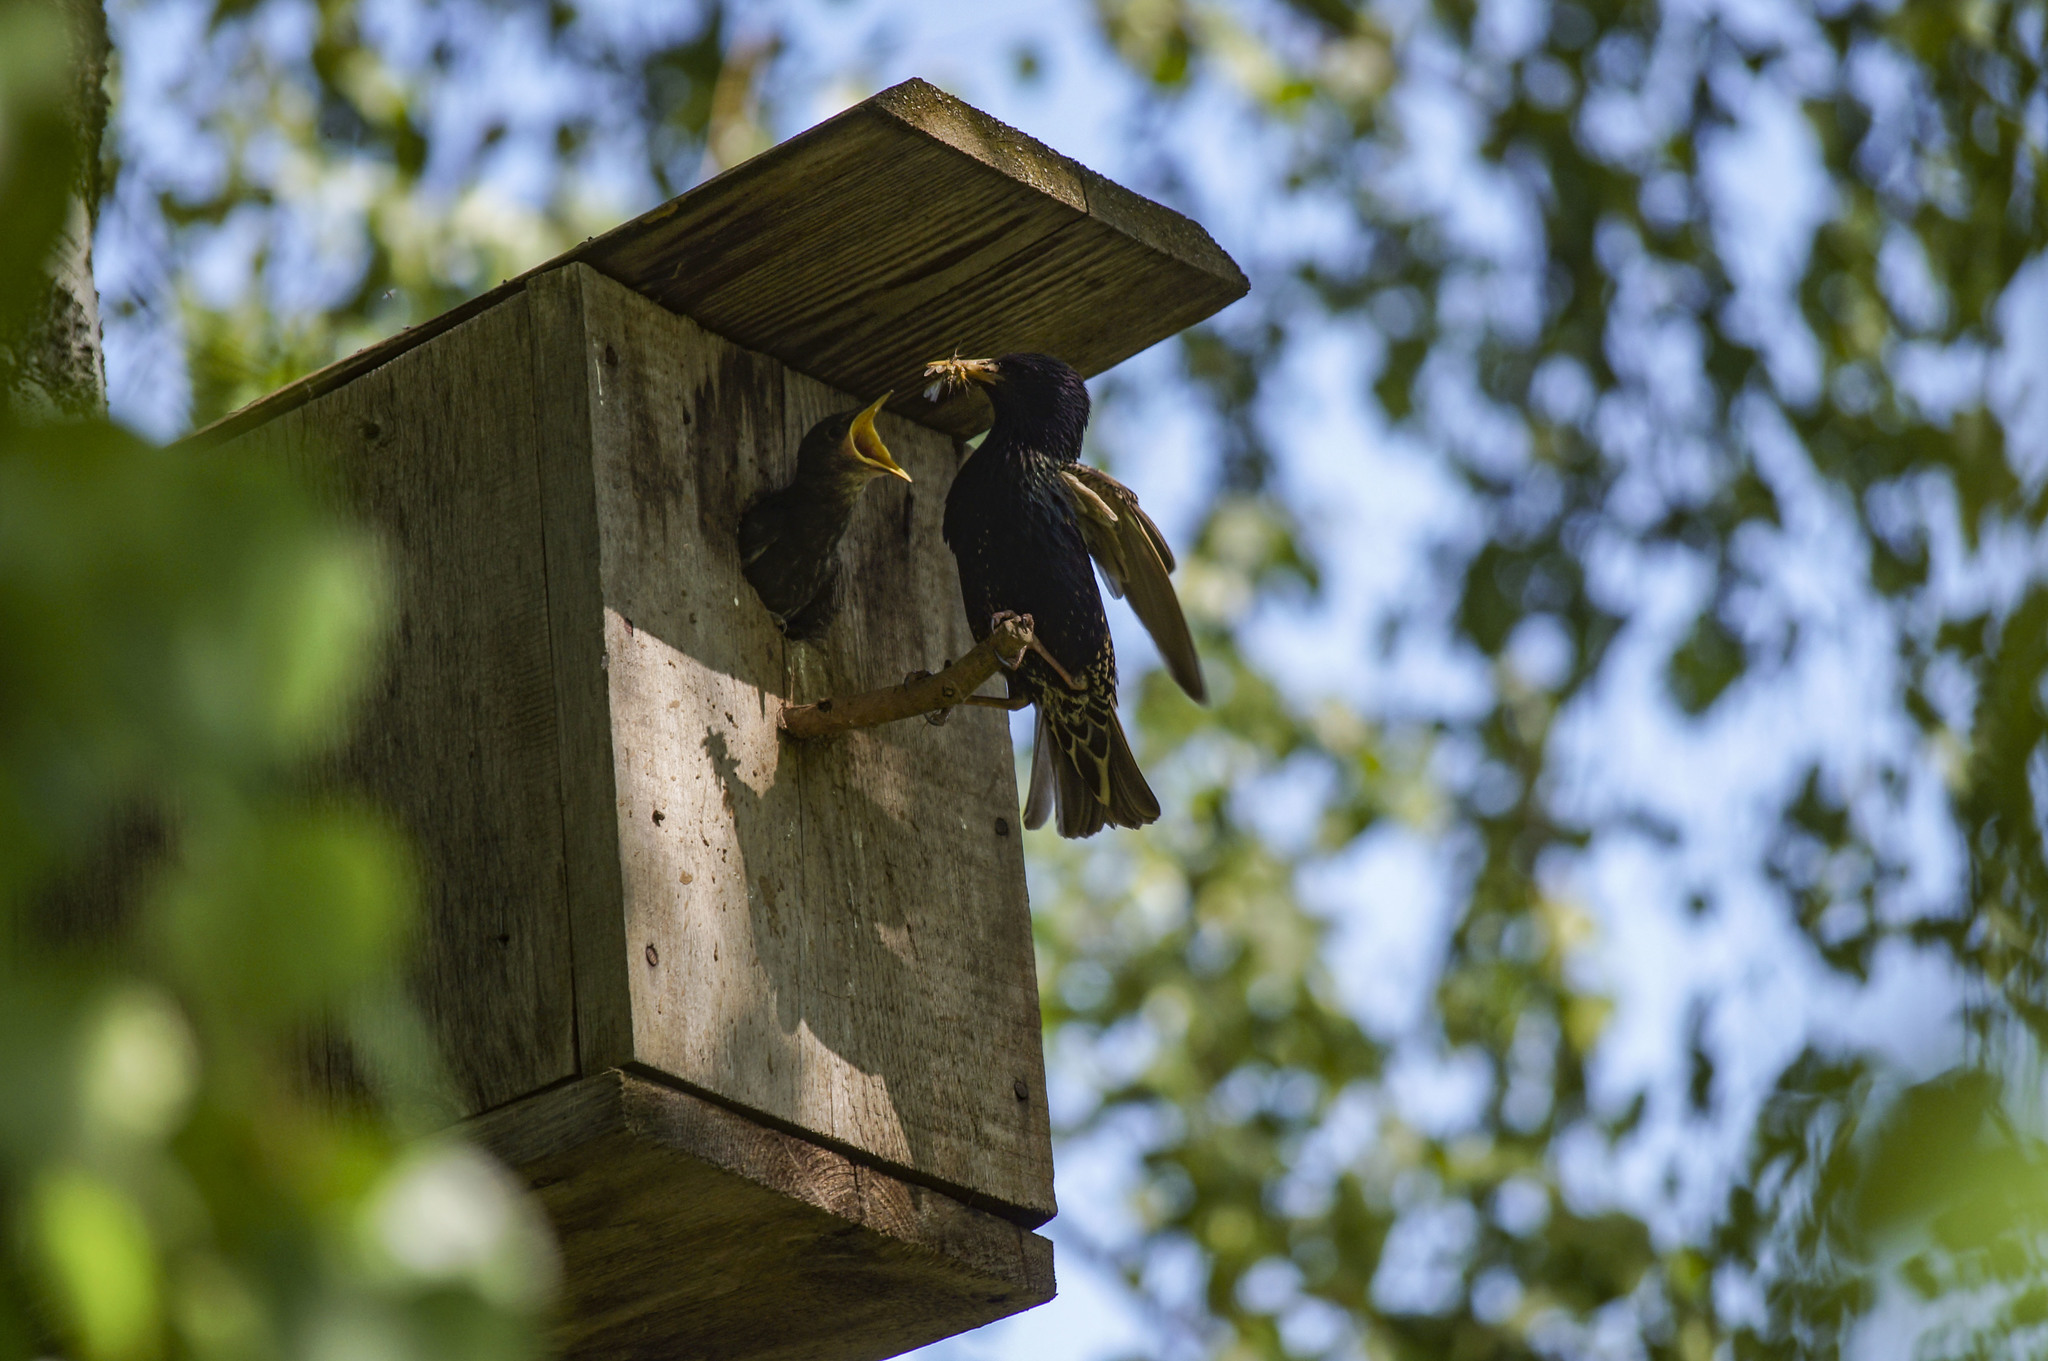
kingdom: Animalia
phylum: Chordata
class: Aves
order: Passeriformes
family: Sturnidae
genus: Sturnus
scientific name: Sturnus vulgaris
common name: Common starling
